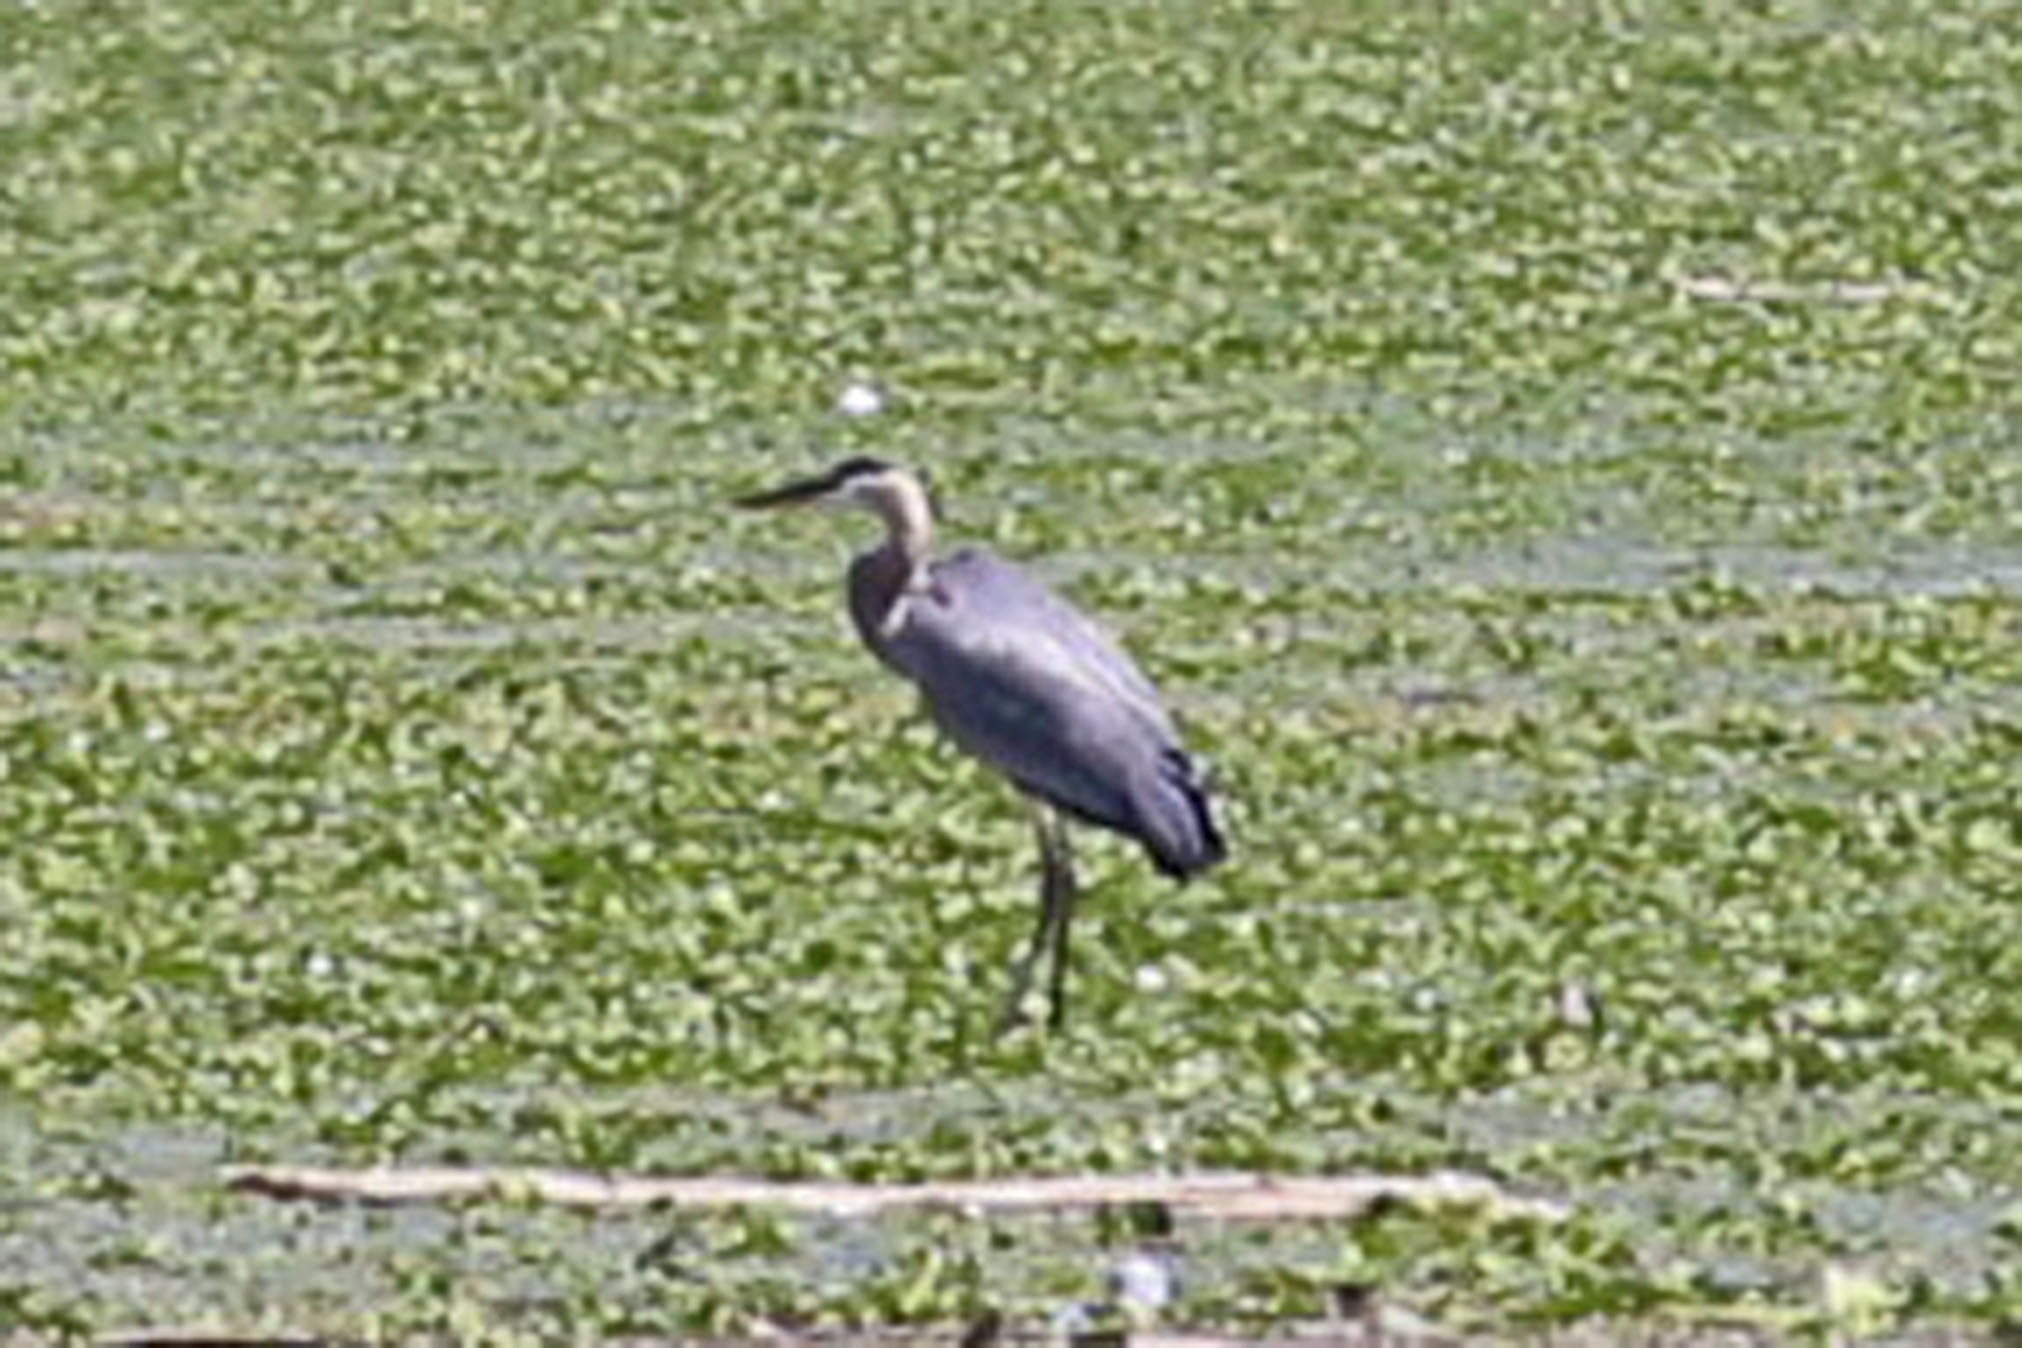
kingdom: Animalia
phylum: Chordata
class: Aves
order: Pelecaniformes
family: Ardeidae
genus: Ardea
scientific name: Ardea herodias
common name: Great blue heron
